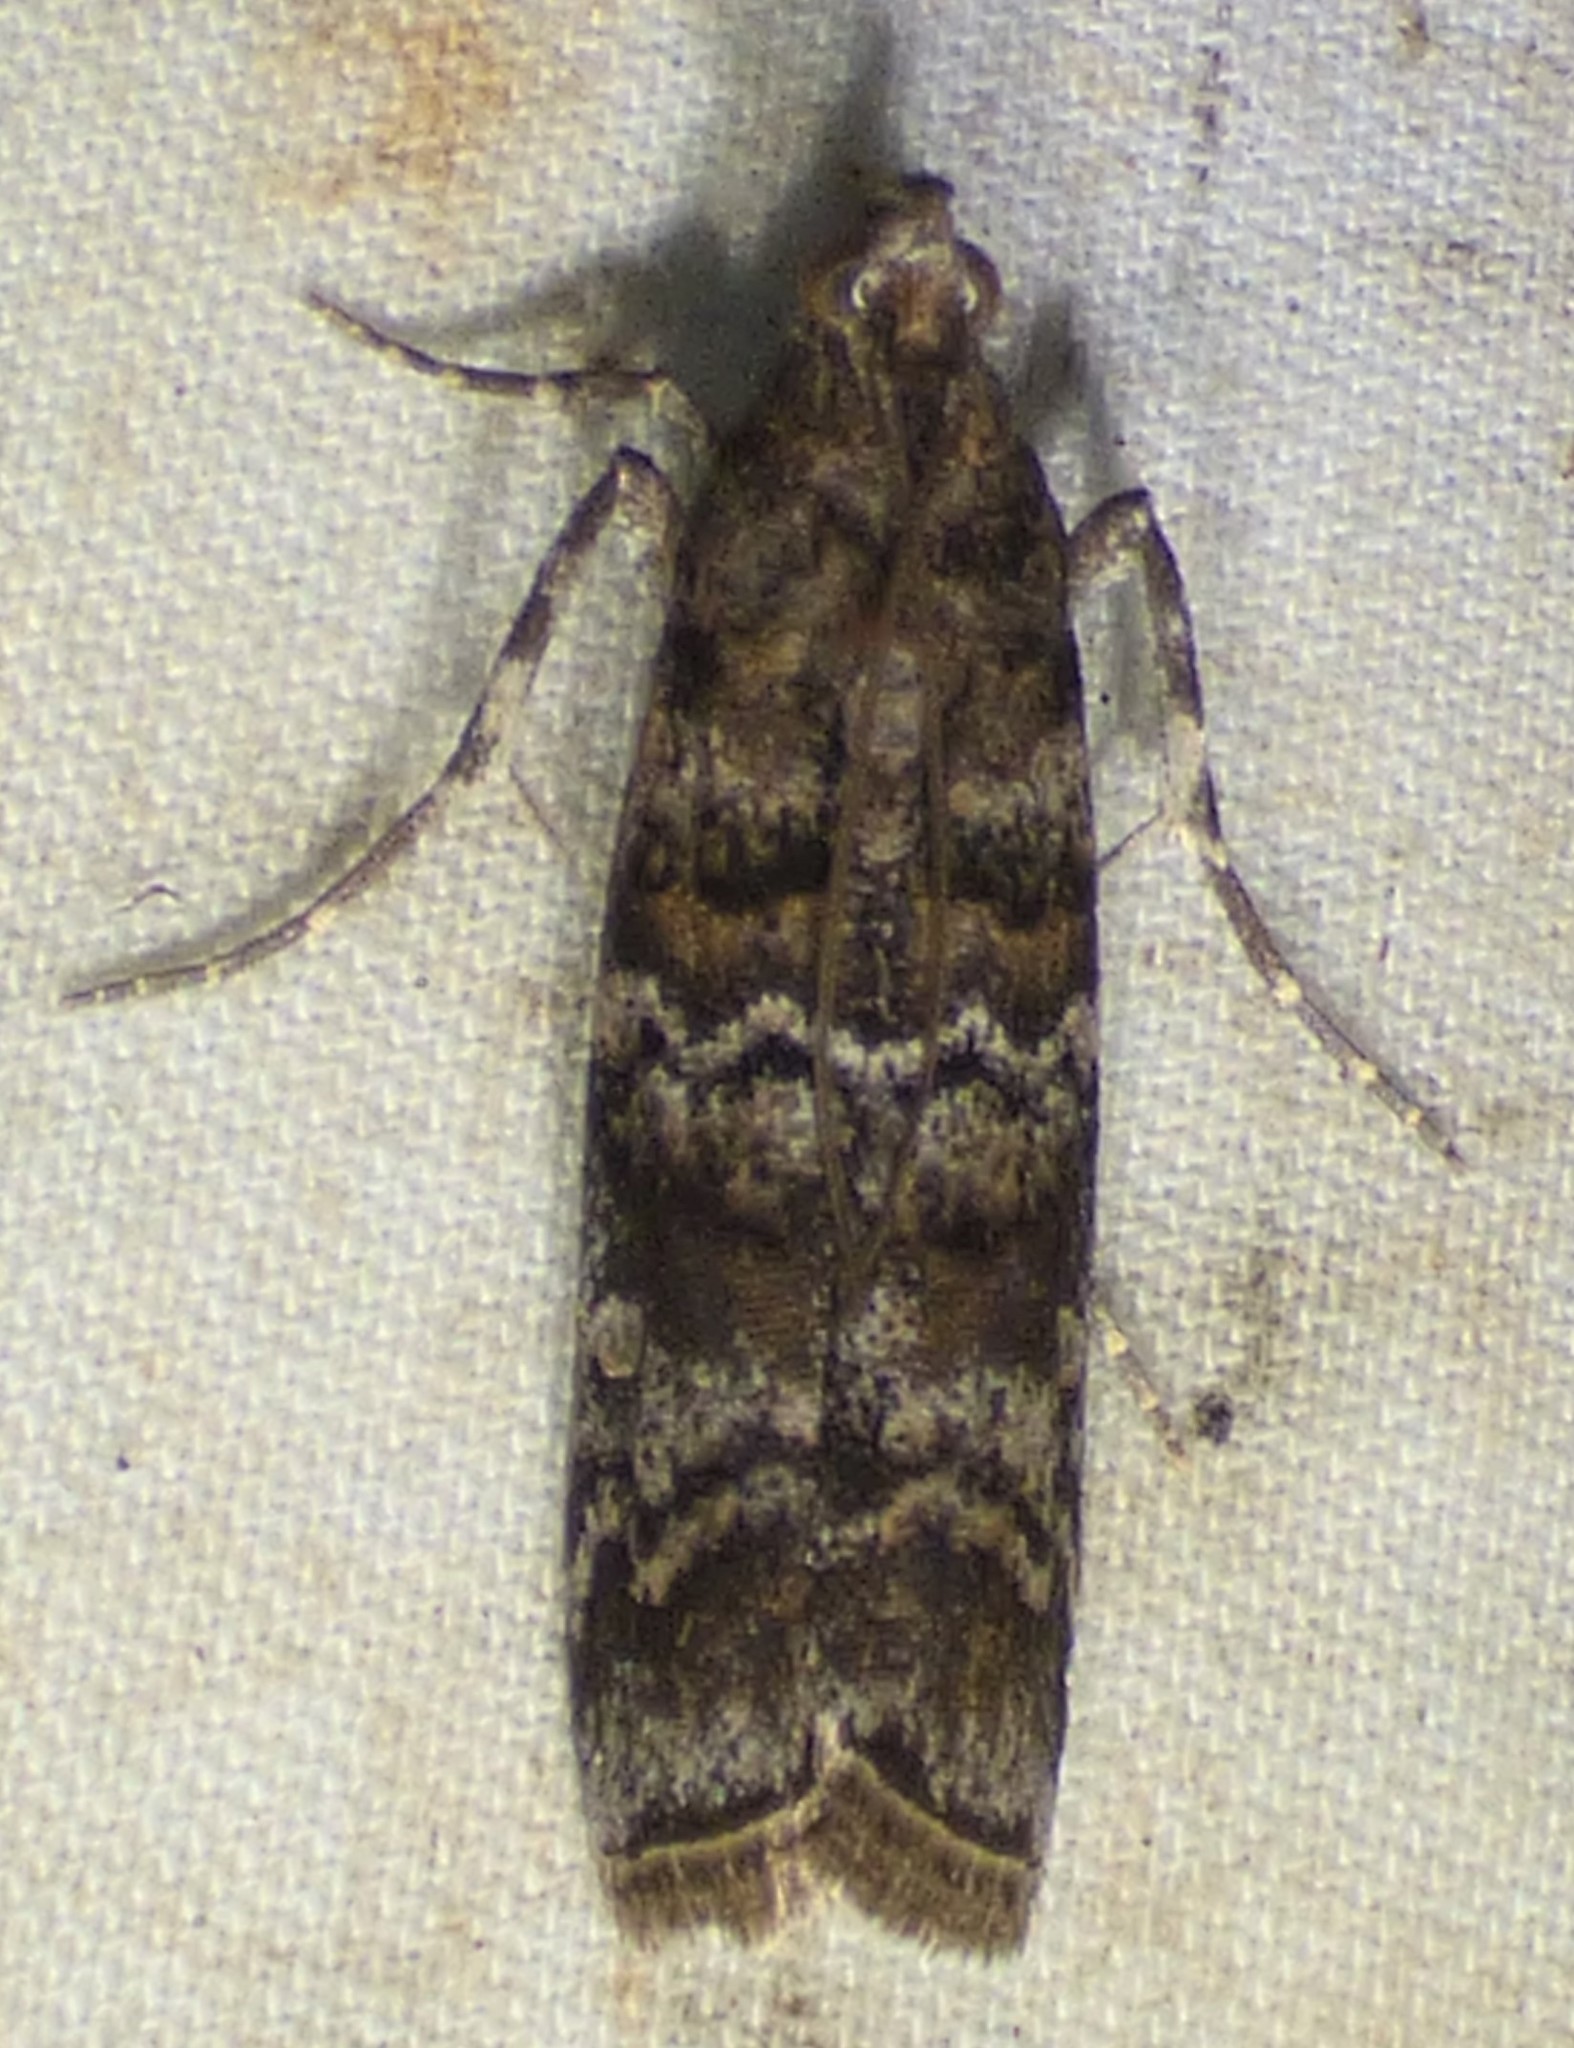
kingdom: Animalia
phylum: Arthropoda
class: Insecta
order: Lepidoptera
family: Pyralidae
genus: Dioryctria
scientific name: Dioryctria amatella
